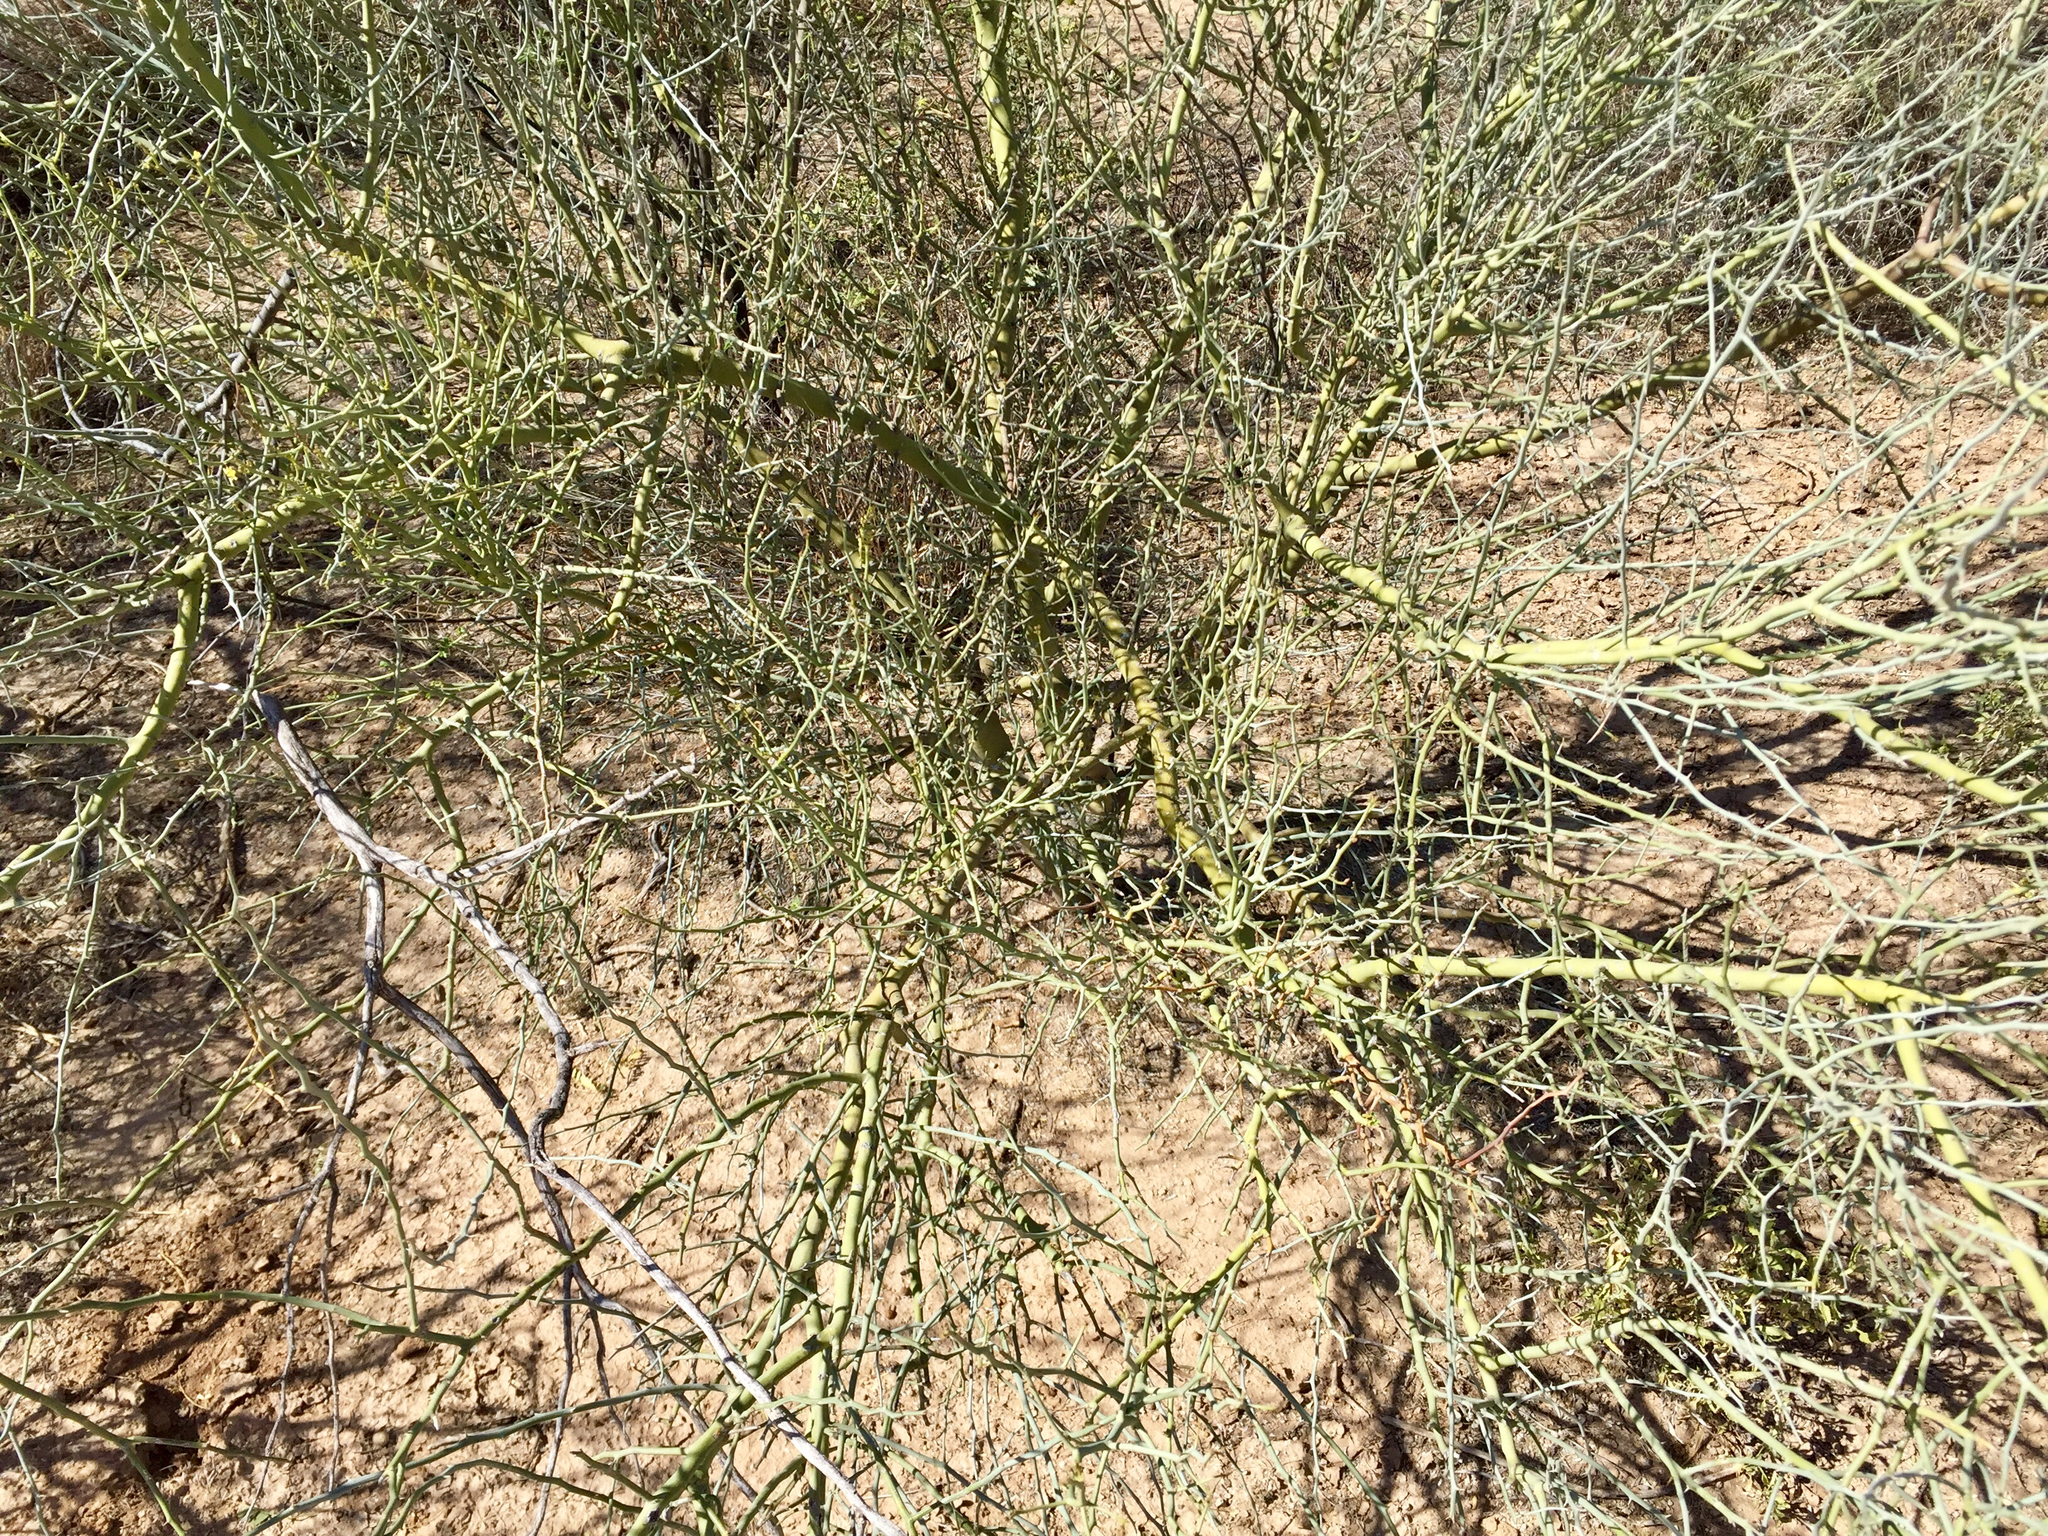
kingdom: Plantae
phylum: Tracheophyta
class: Magnoliopsida
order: Fabales
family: Fabaceae
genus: Parkinsonia
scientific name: Parkinsonia florida
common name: Blue paloverde
